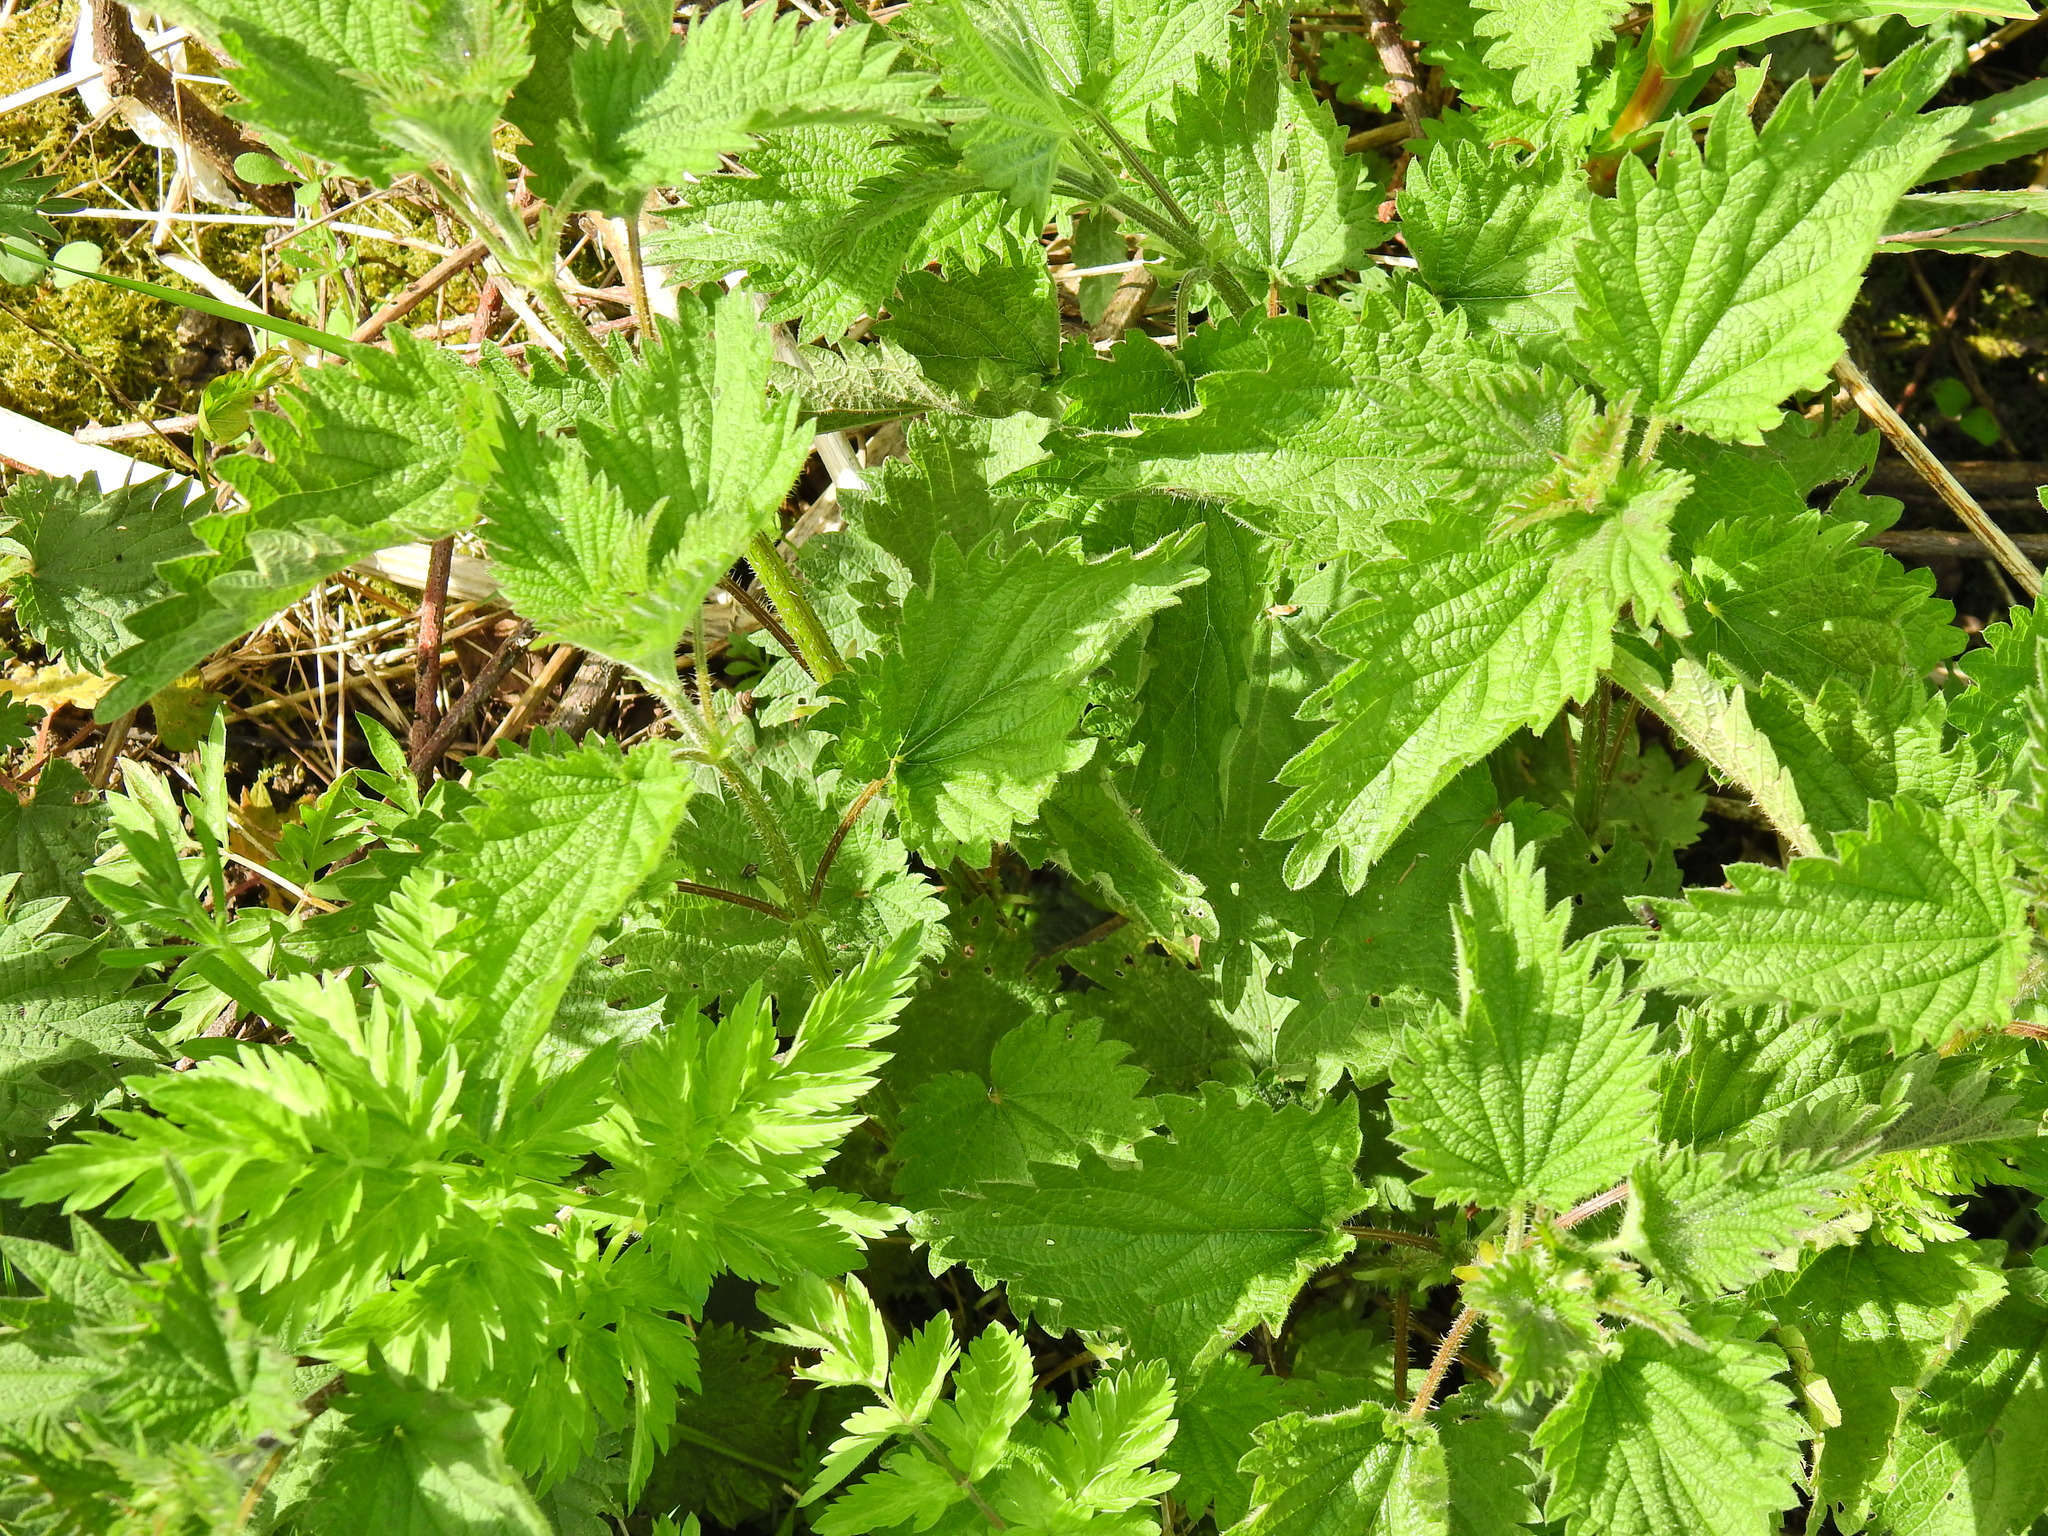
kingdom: Plantae
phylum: Tracheophyta
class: Magnoliopsida
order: Rosales
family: Urticaceae
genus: Urtica
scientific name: Urtica dioica
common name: Common nettle
